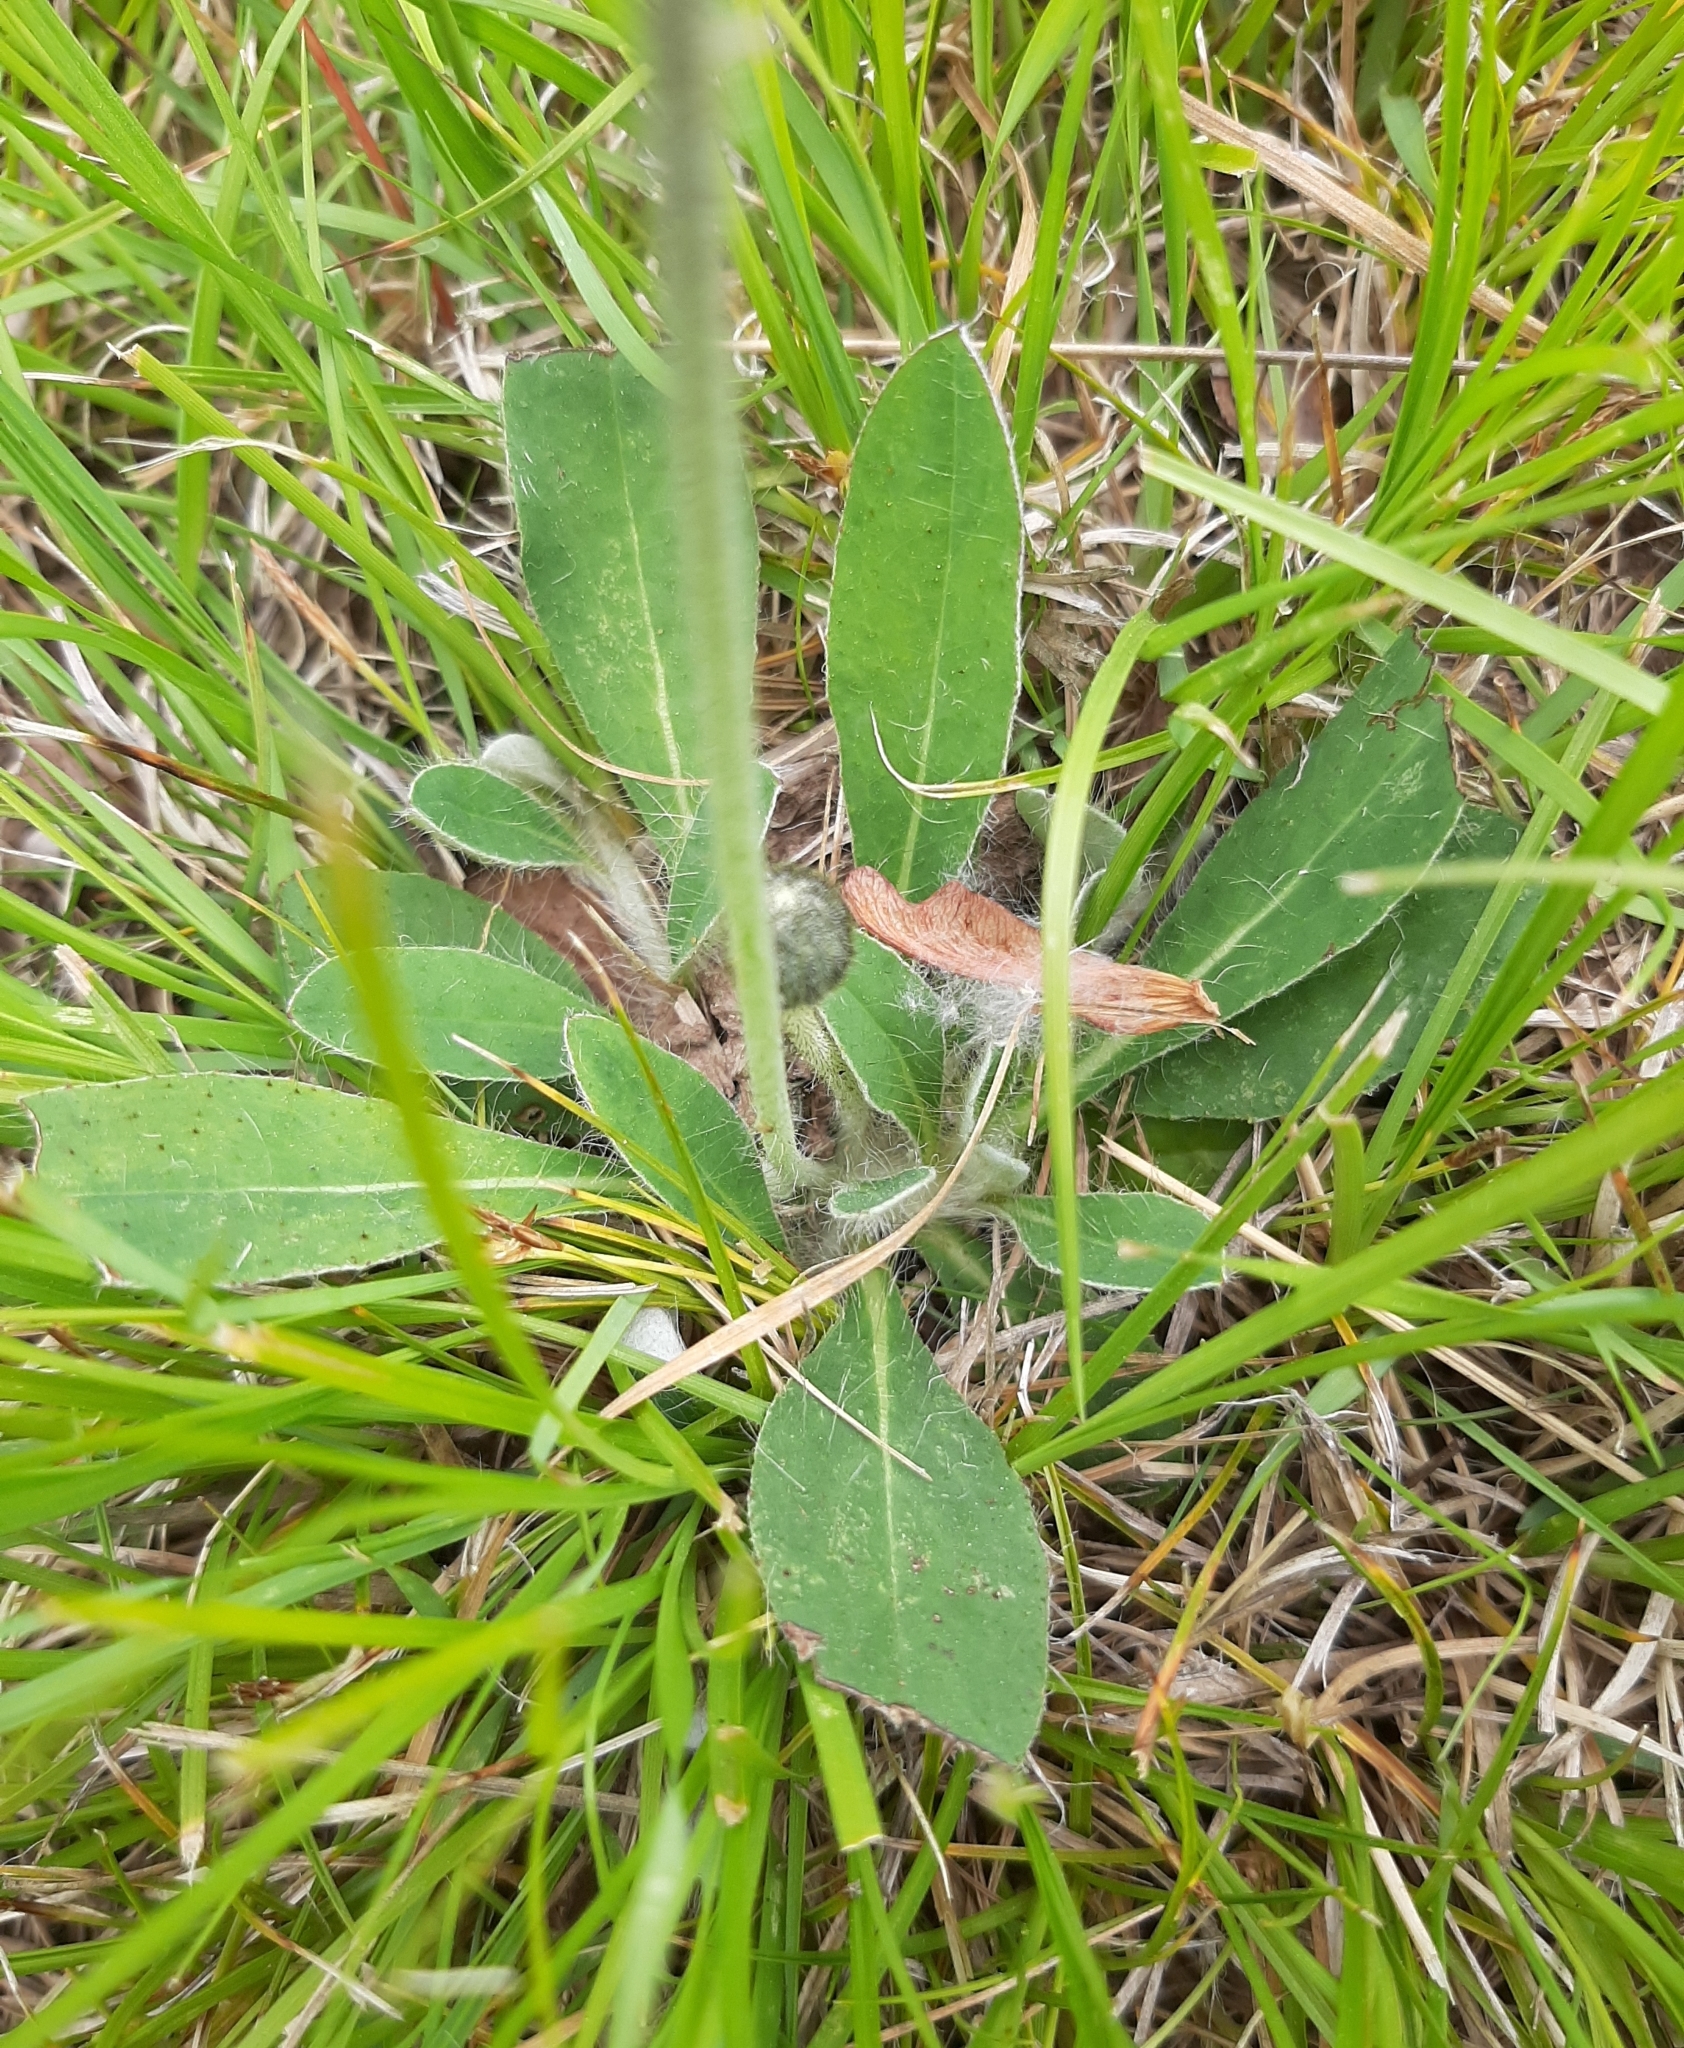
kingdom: Plantae
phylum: Tracheophyta
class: Magnoliopsida
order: Asterales
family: Asteraceae
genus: Pilosella
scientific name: Pilosella officinarum
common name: Mouse-ear hawkweed
